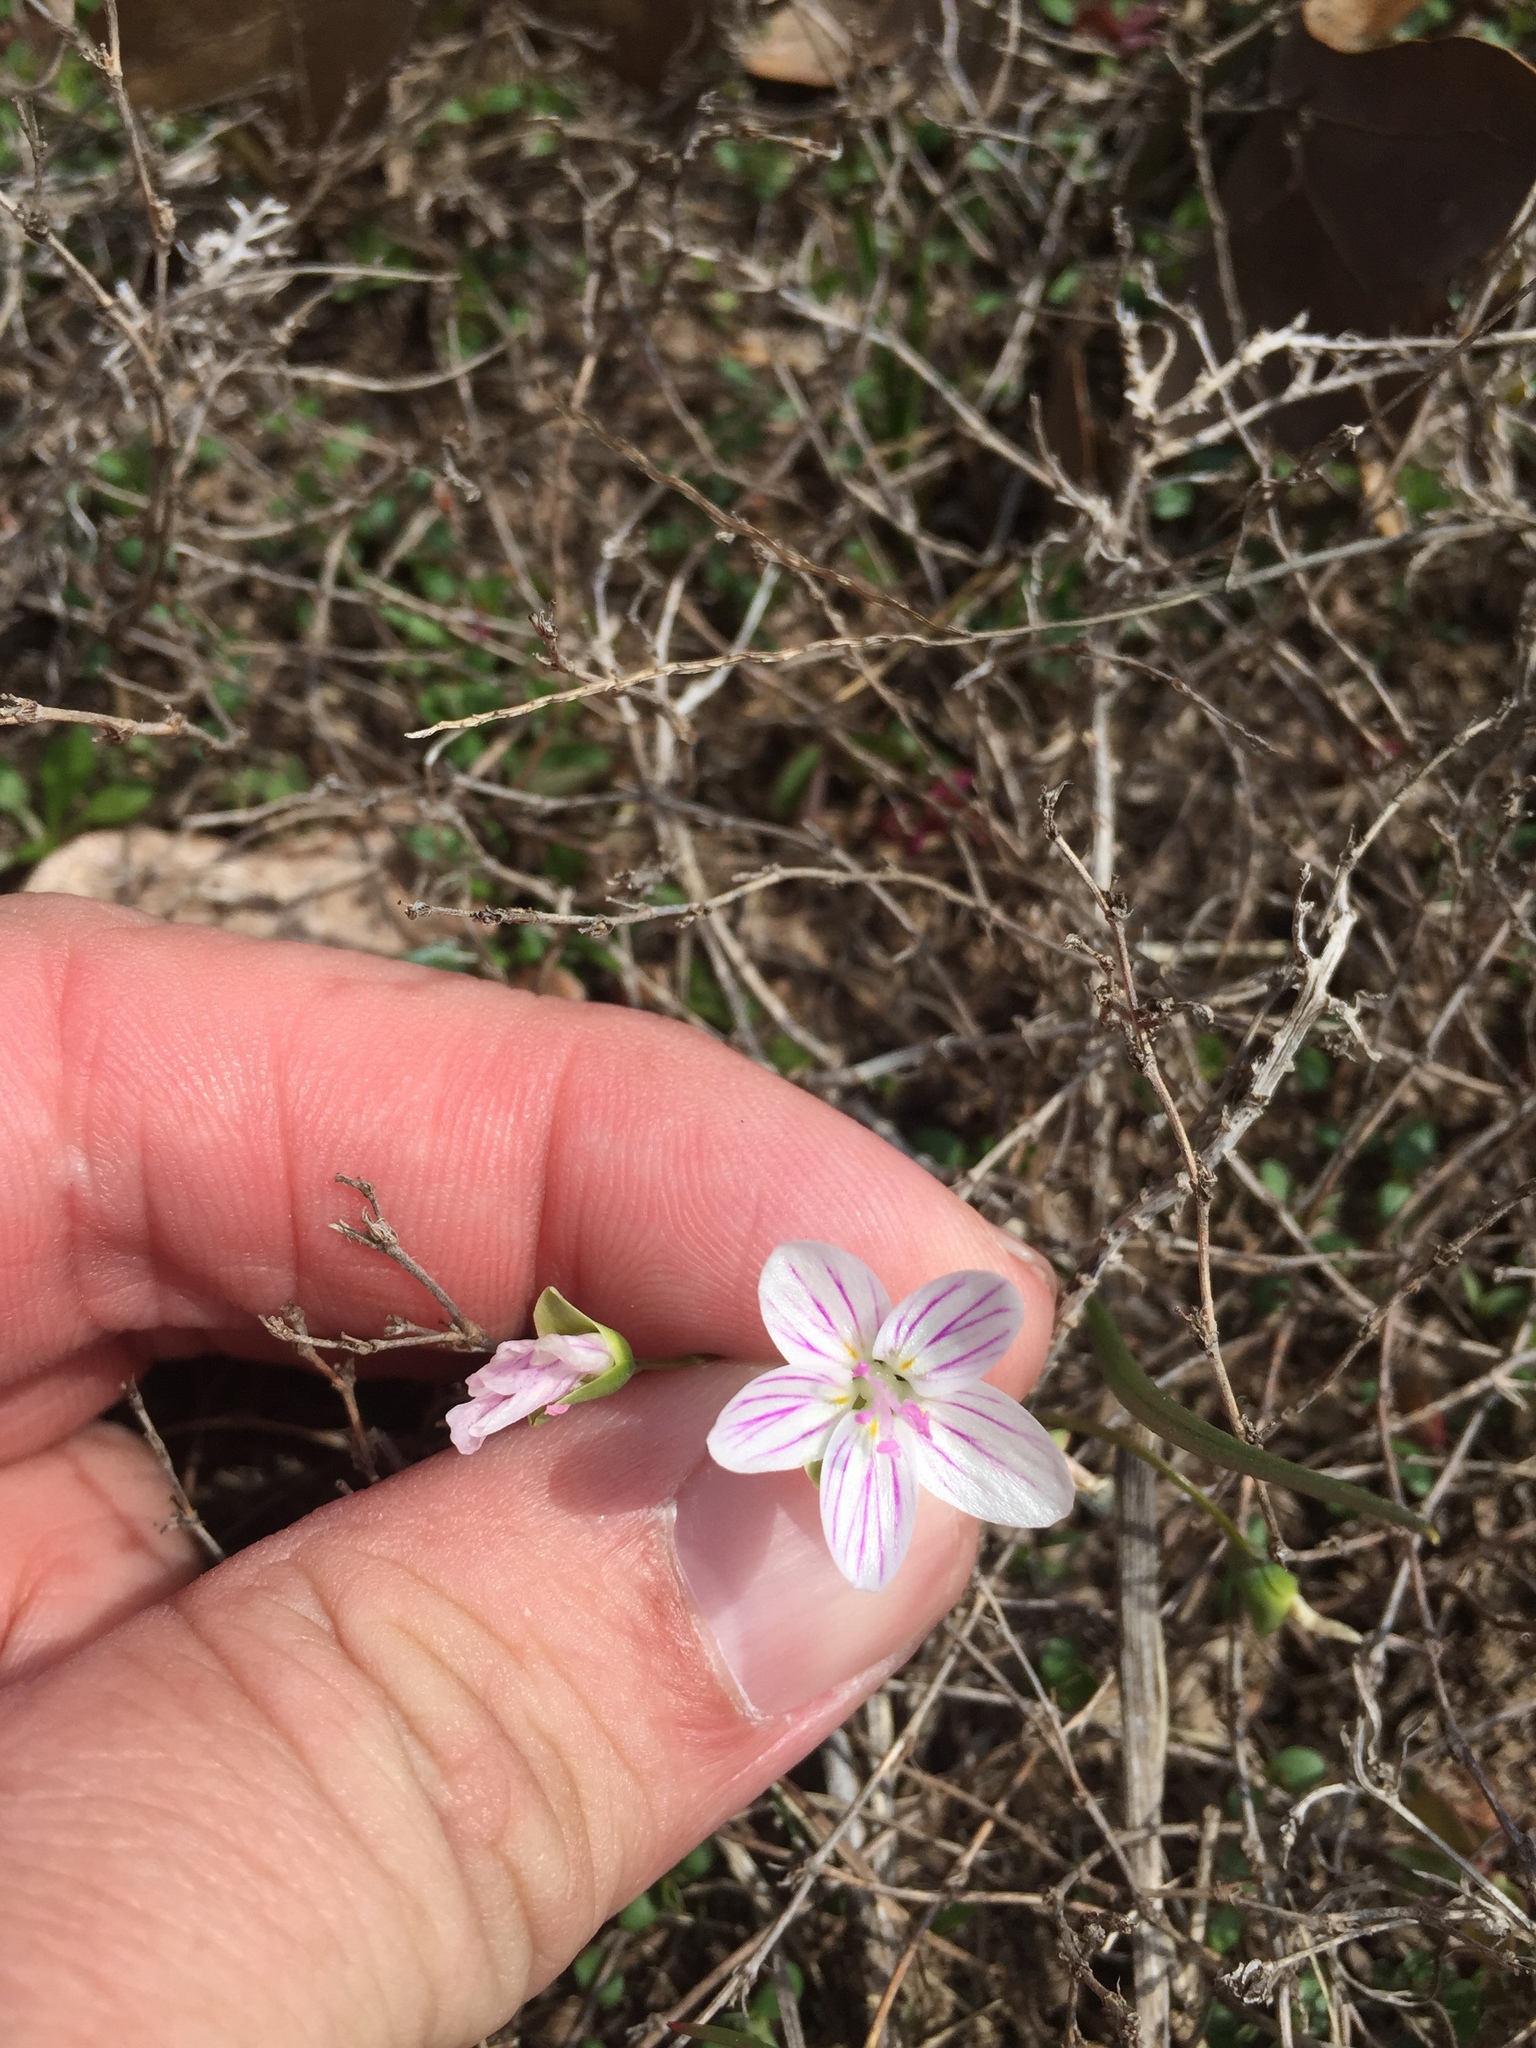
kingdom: Plantae
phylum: Tracheophyta
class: Magnoliopsida
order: Caryophyllales
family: Montiaceae
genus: Claytonia
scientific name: Claytonia virginica
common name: Virginia springbeauty
